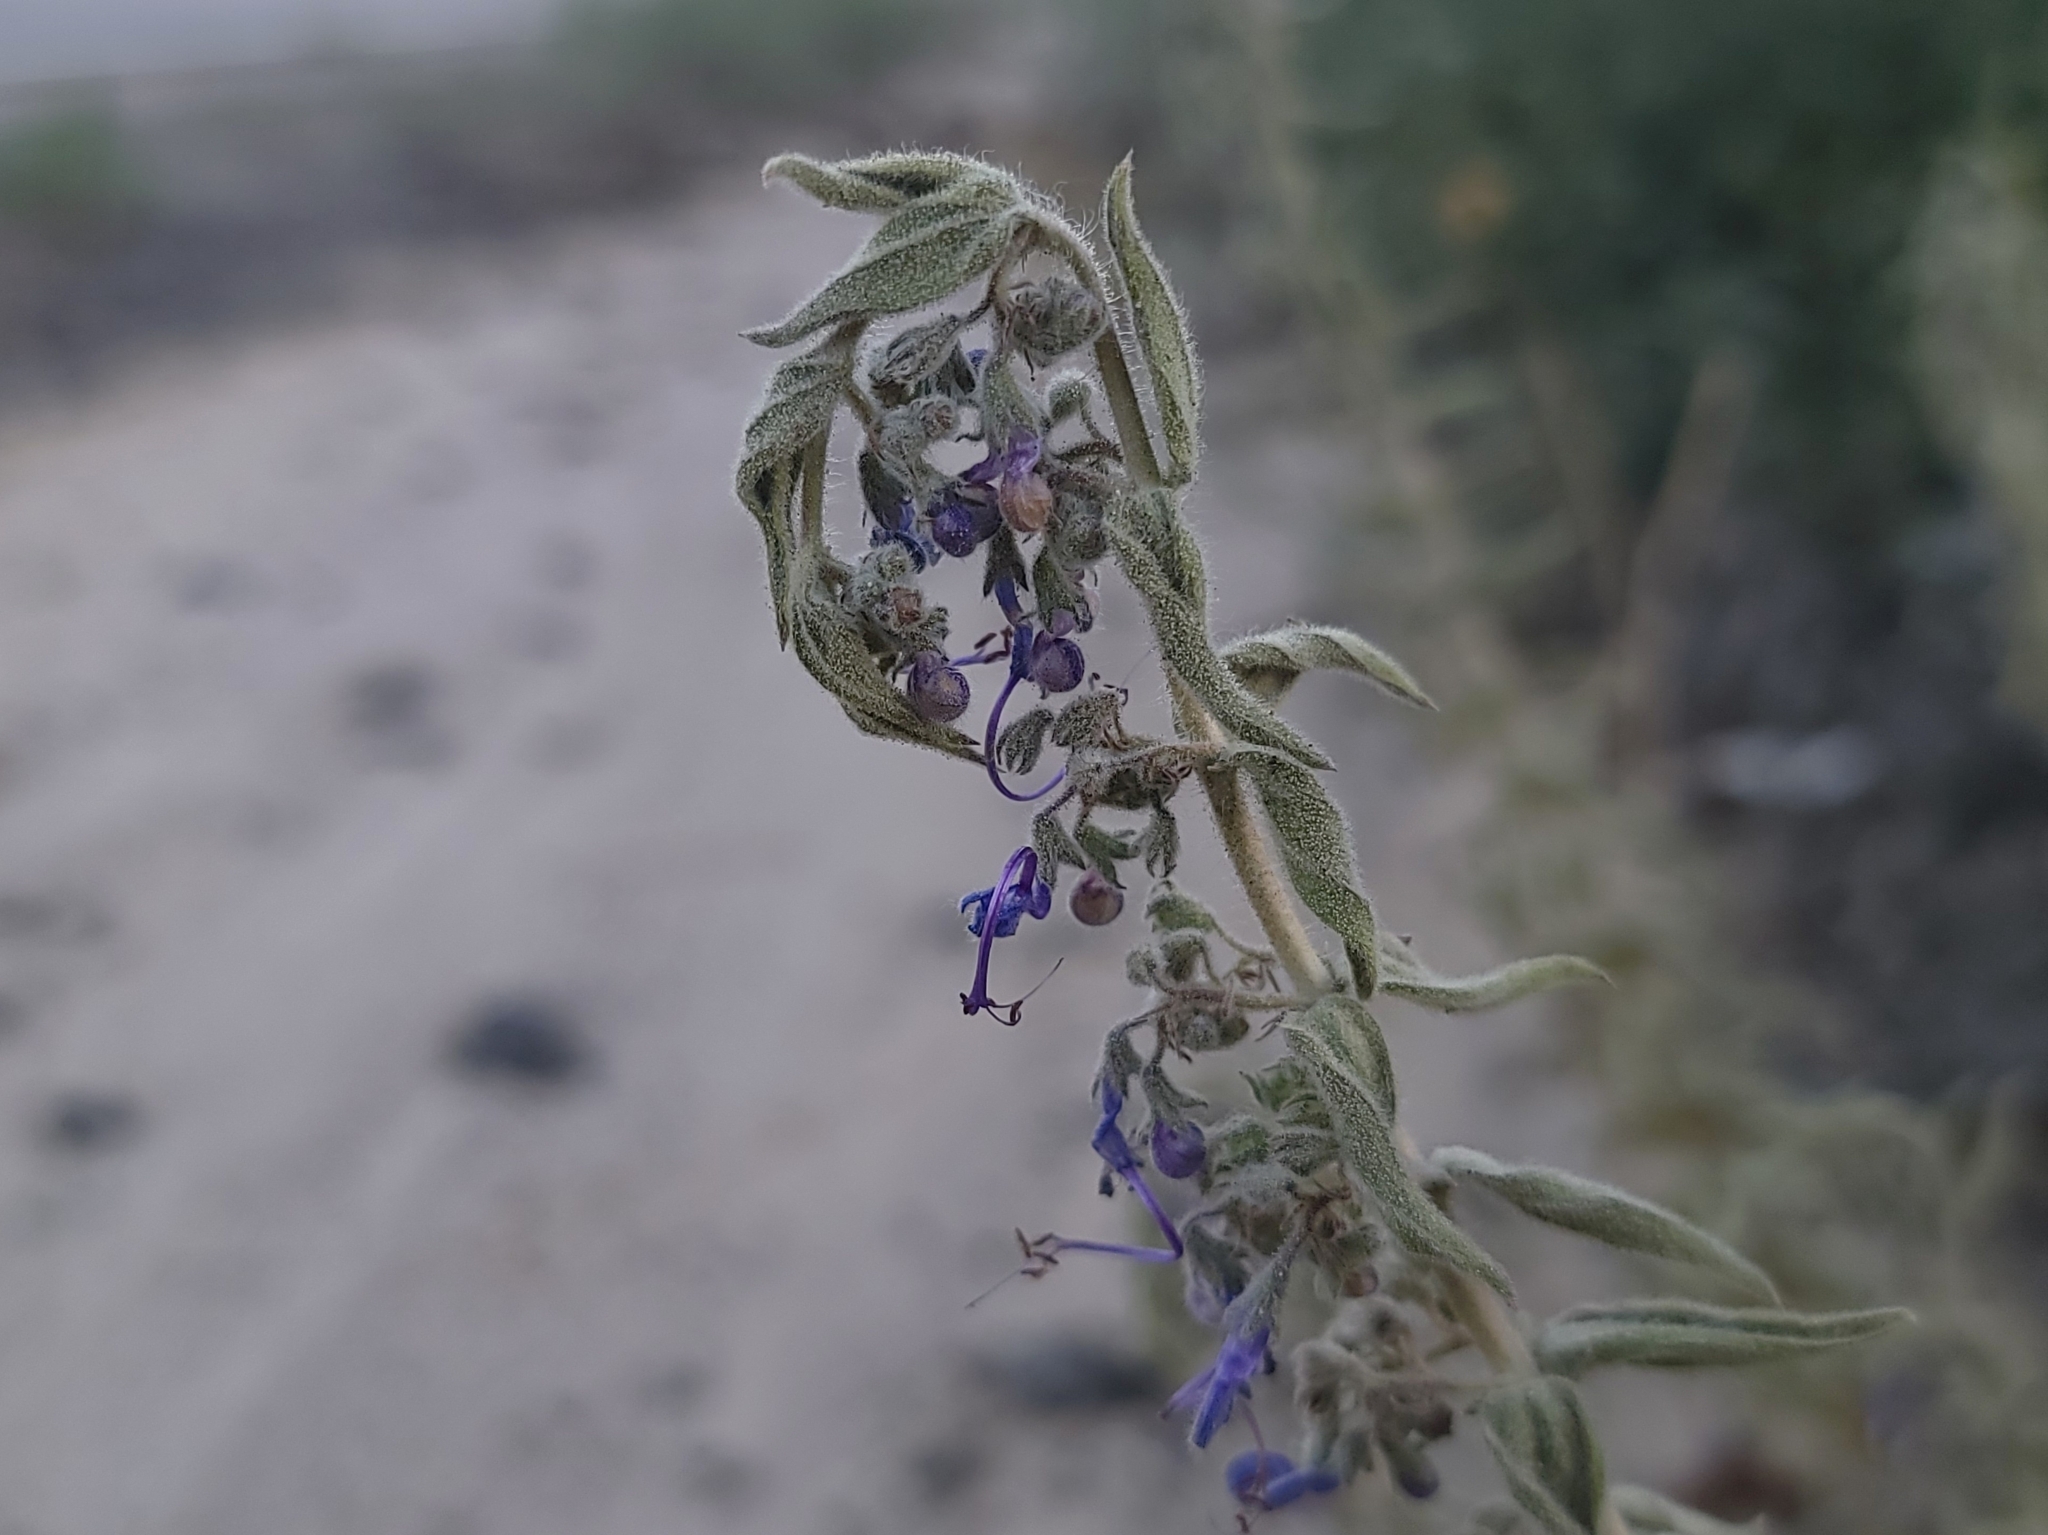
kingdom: Plantae
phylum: Tracheophyta
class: Magnoliopsida
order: Lamiales
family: Lamiaceae
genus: Trichostema
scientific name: Trichostema lanceolatum
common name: Vinegar-weed
